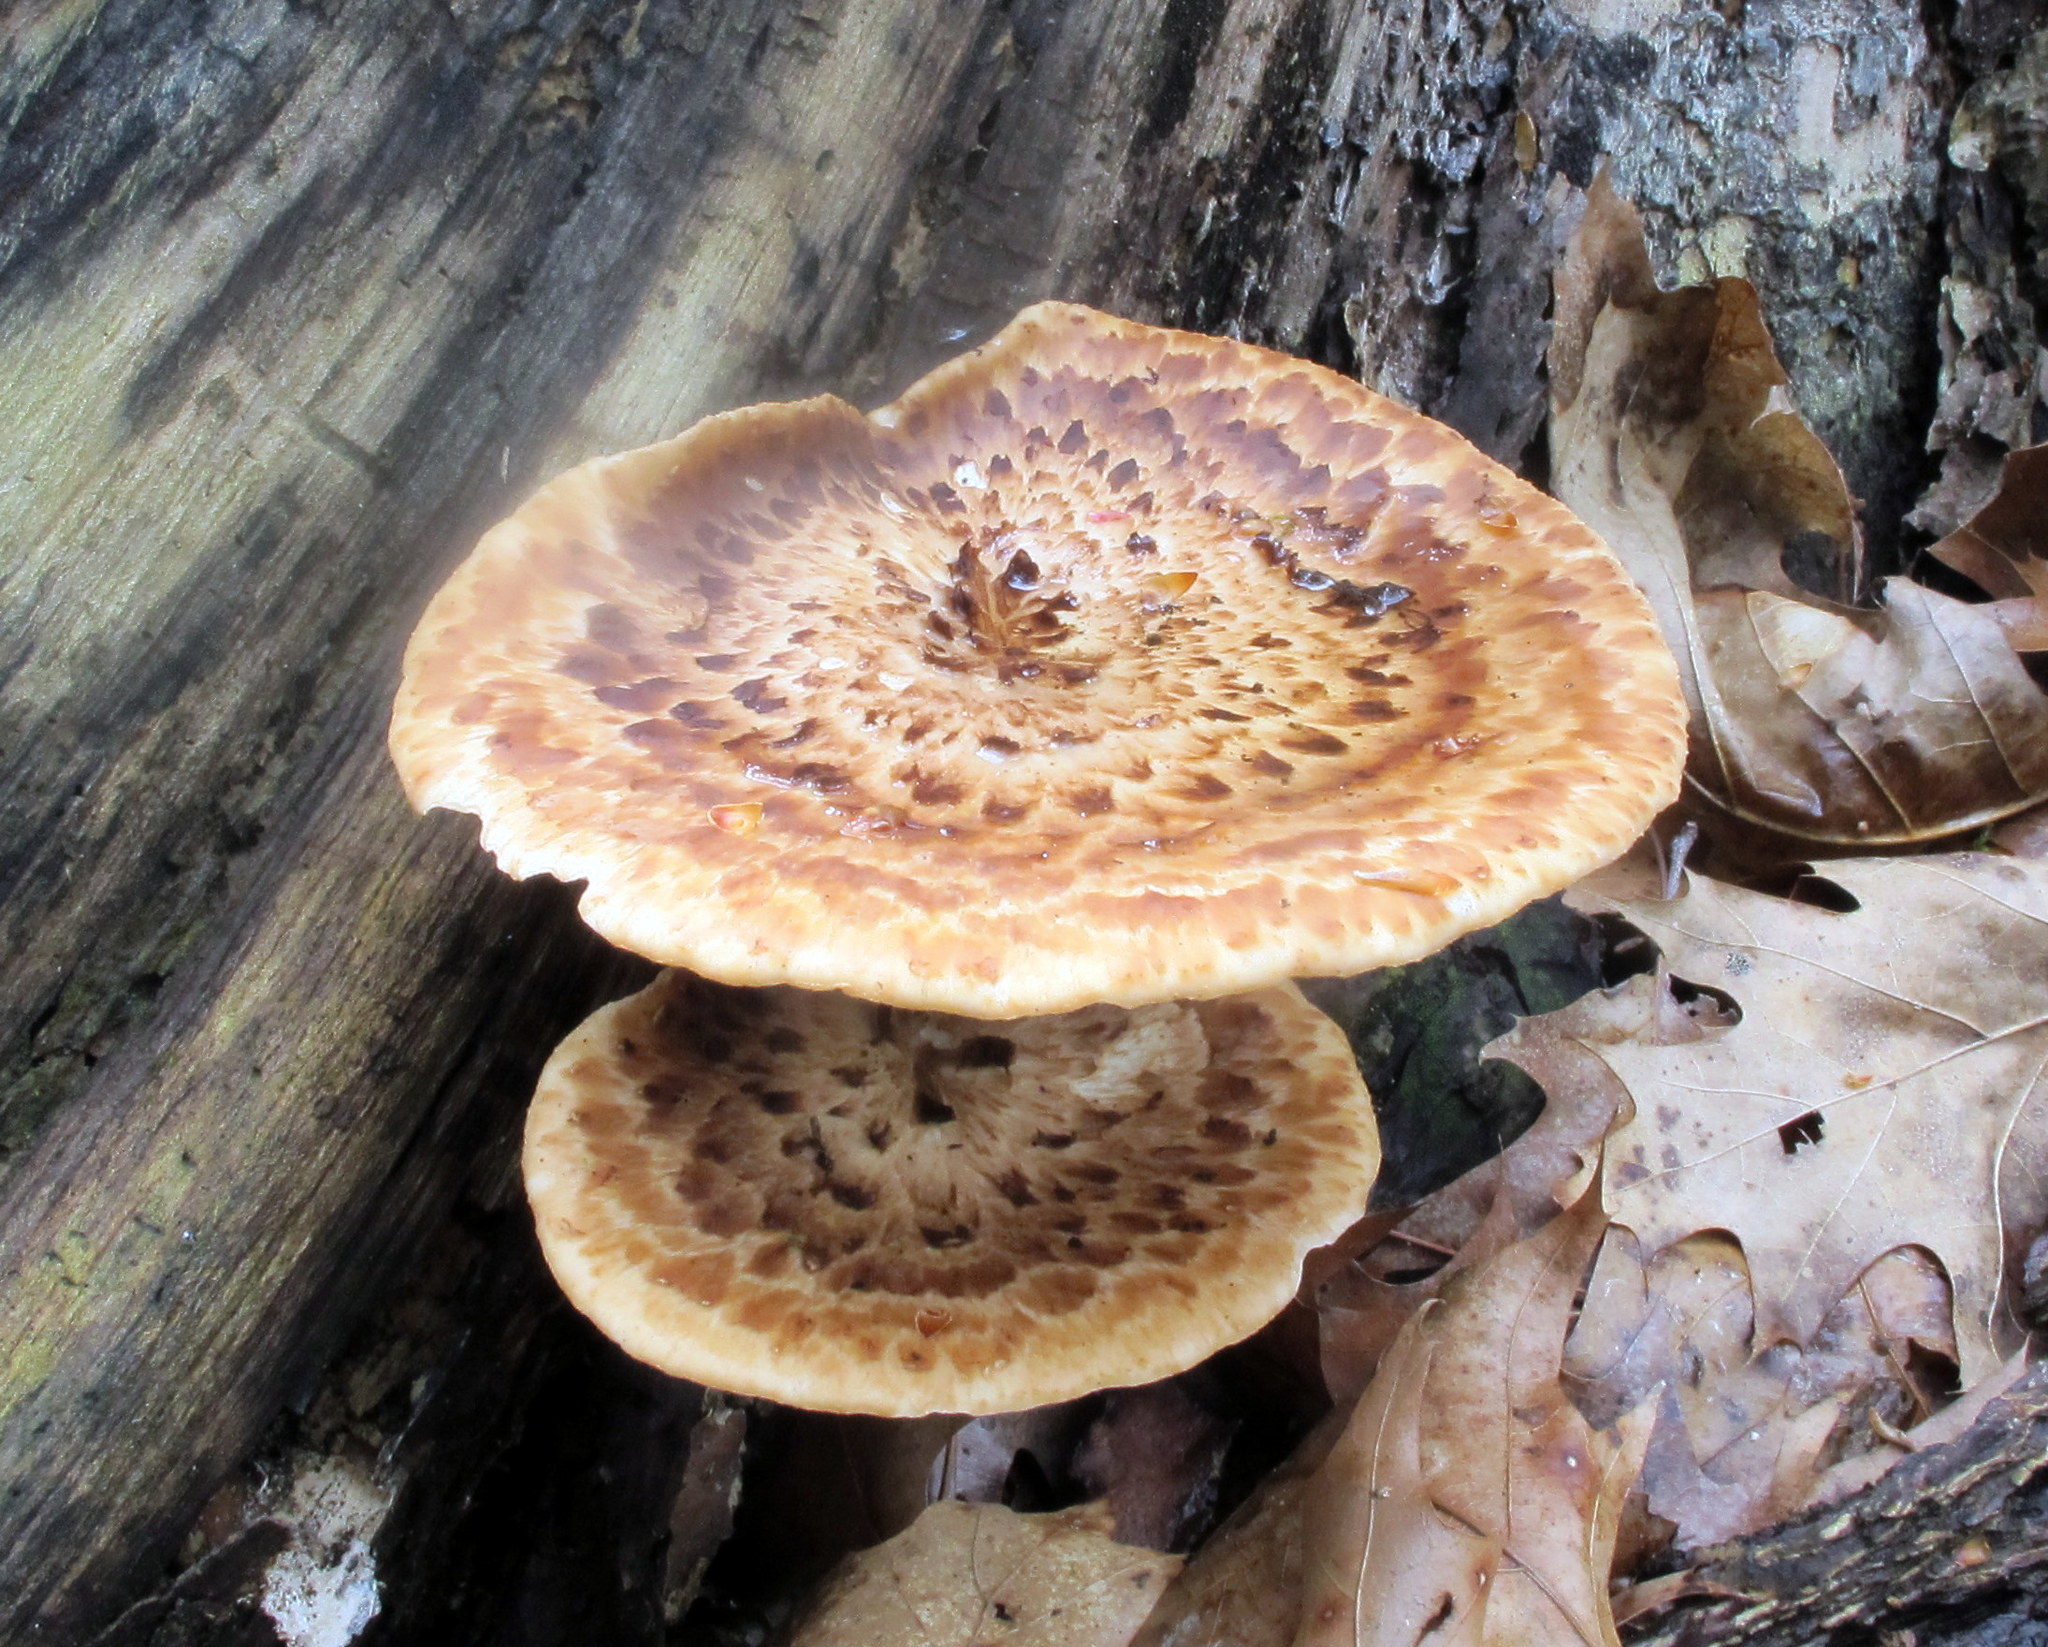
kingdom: Fungi
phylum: Basidiomycota
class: Agaricomycetes
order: Polyporales
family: Polyporaceae
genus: Cerioporus
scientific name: Cerioporus squamosus
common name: Dryad's saddle
